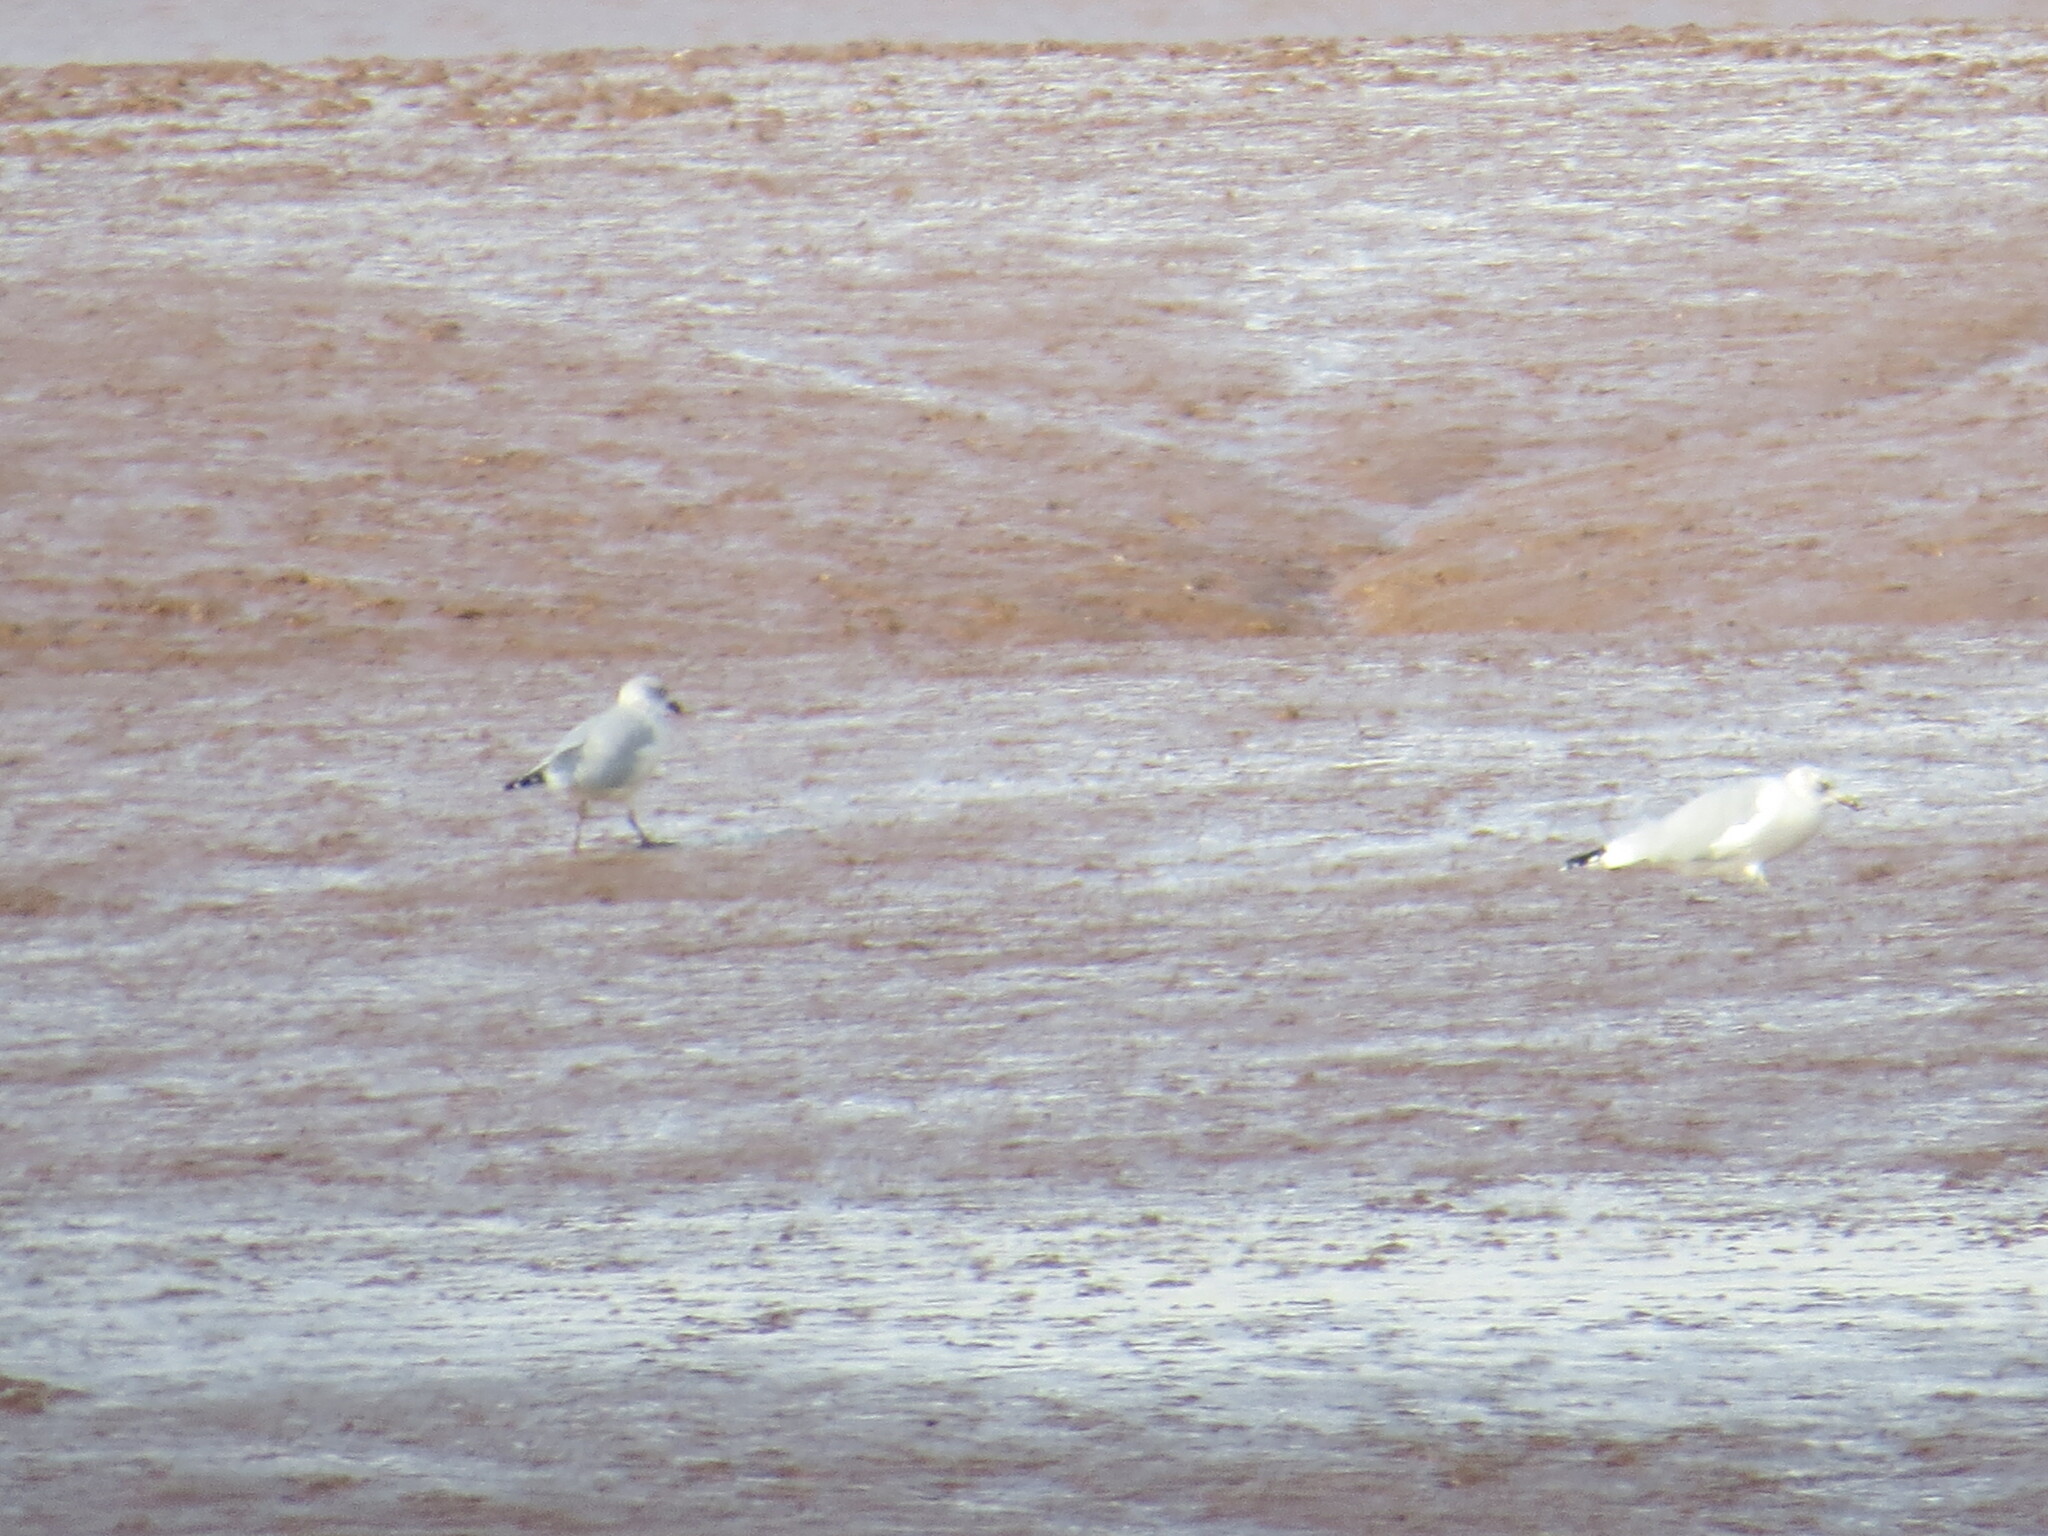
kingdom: Animalia
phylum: Chordata
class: Aves
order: Charadriiformes
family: Laridae
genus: Larus
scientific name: Larus delawarensis
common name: Ring-billed gull
